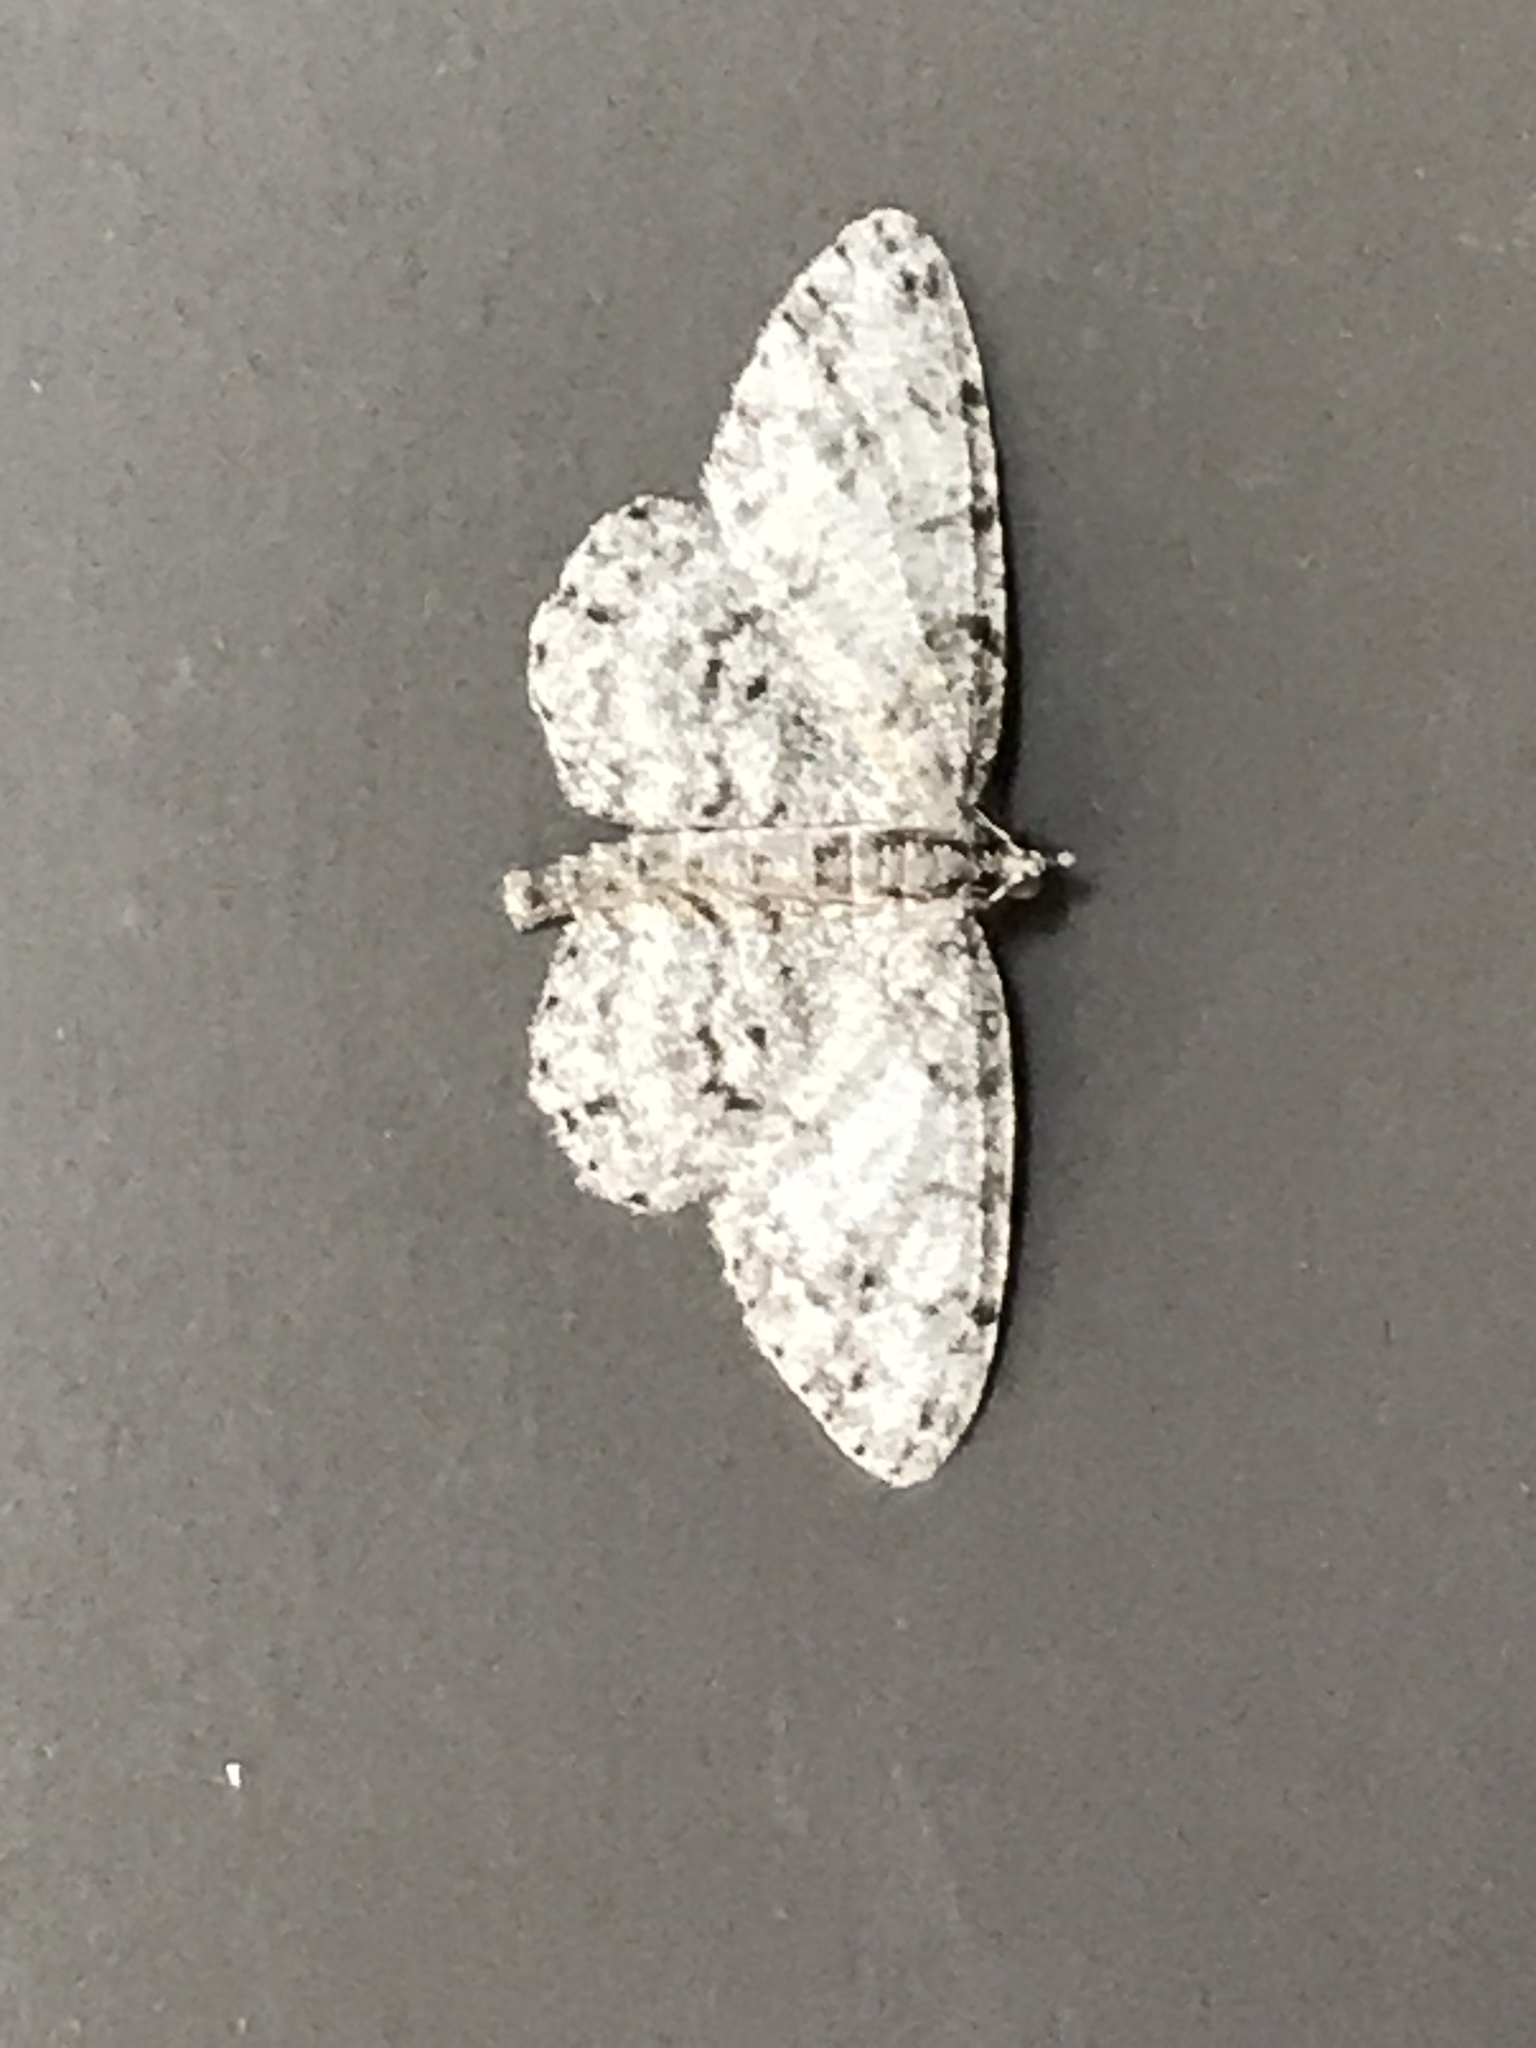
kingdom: Animalia
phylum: Arthropoda
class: Insecta
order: Lepidoptera
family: Geometridae
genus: Protoboarmia
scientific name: Protoboarmia porcelaria
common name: Porcelain gray
